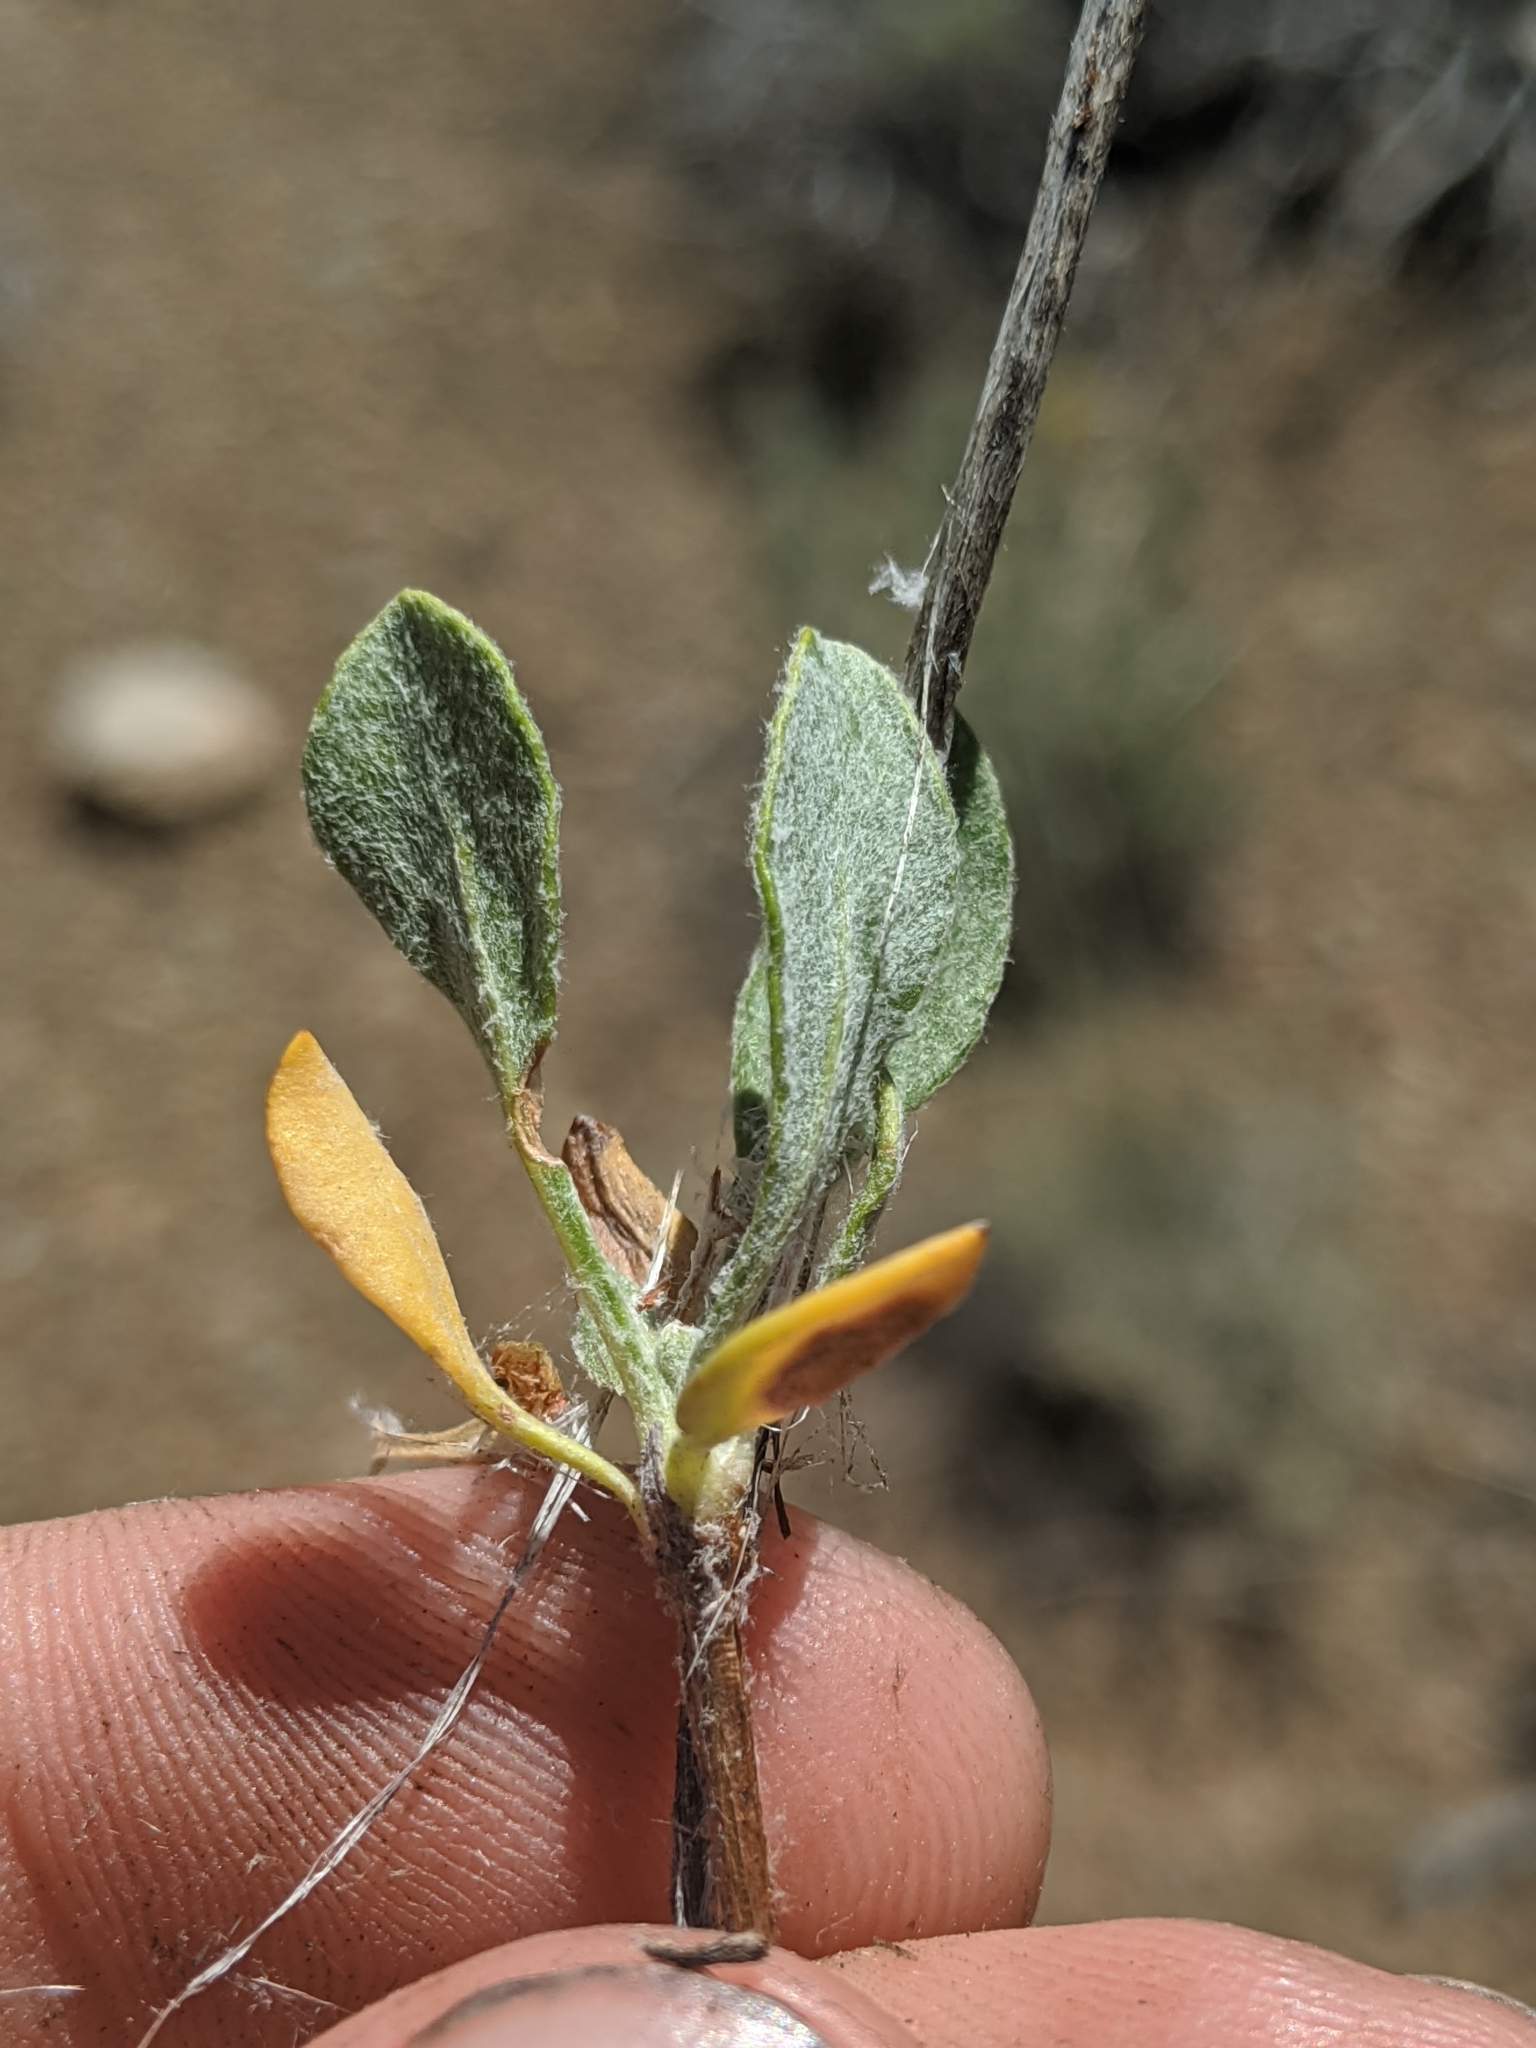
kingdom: Plantae
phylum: Tracheophyta
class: Magnoliopsida
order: Caryophyllales
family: Polygonaceae
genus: Eriogonum
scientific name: Eriogonum umbellatum
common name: Sulfur-buckwheat
